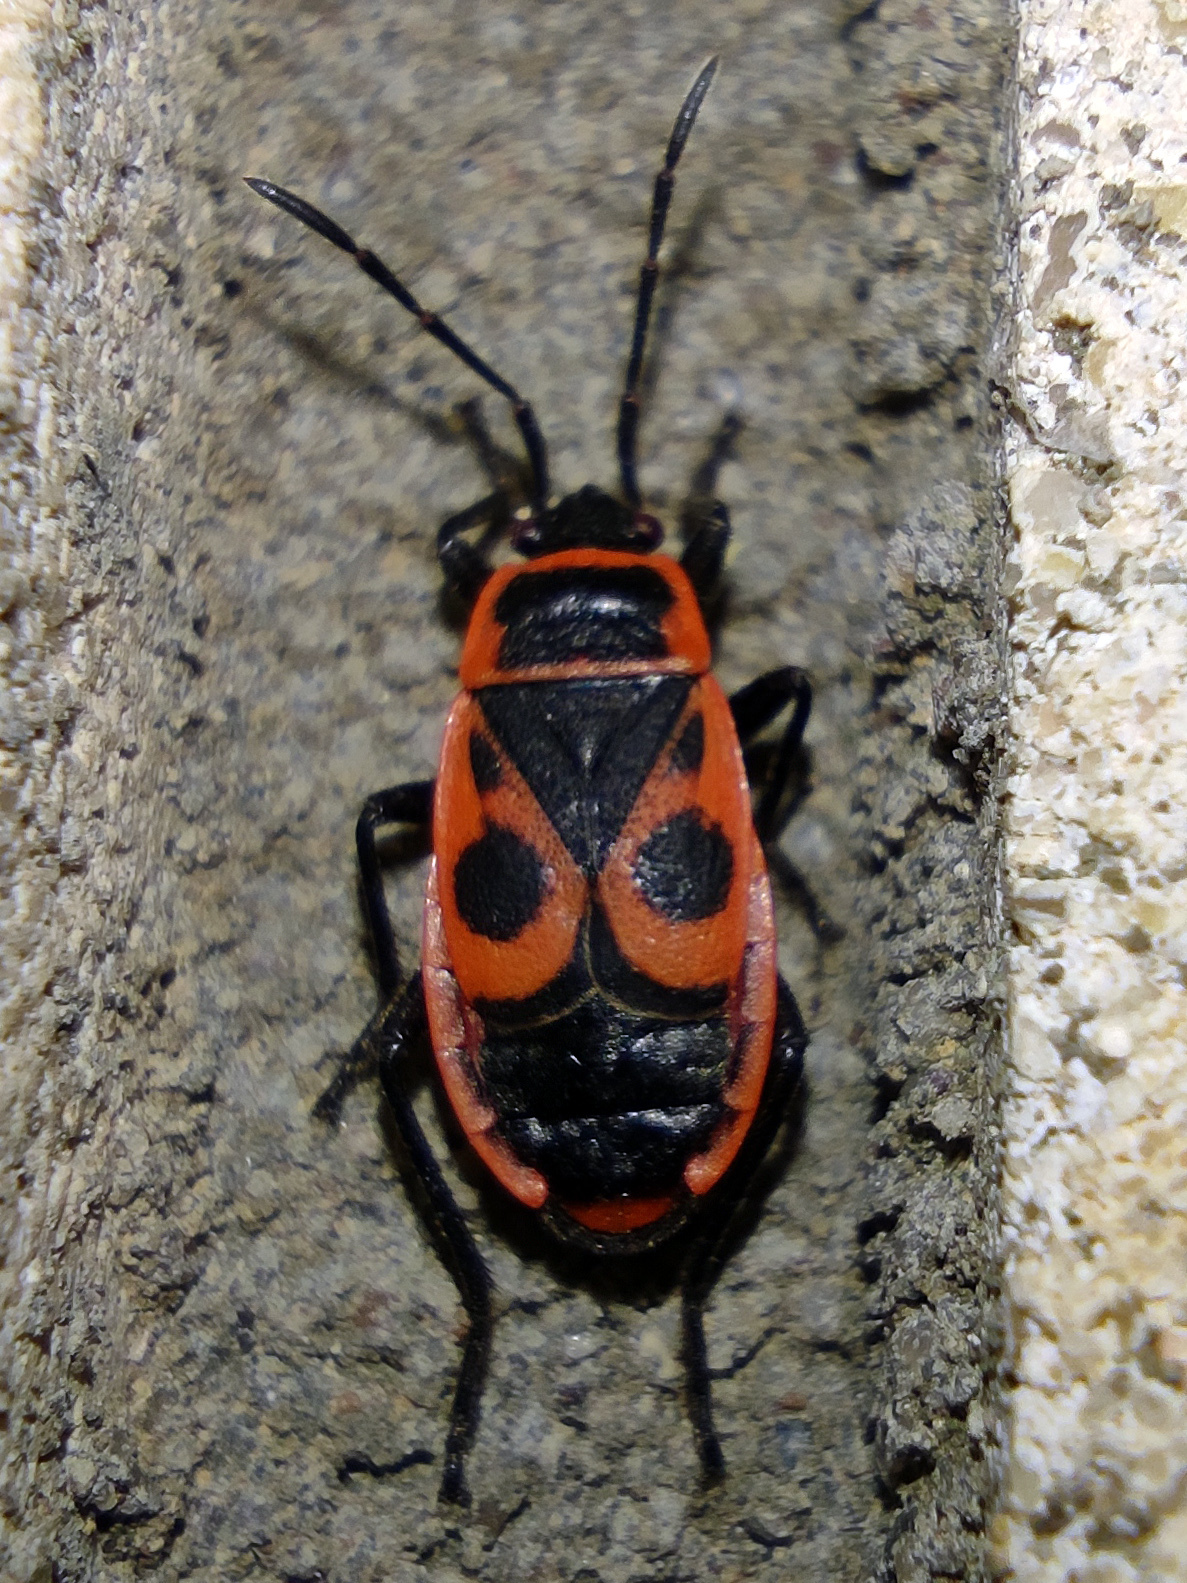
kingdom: Animalia
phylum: Arthropoda
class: Insecta
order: Hemiptera
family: Pyrrhocoridae
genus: Pyrrhocoris
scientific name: Pyrrhocoris apterus
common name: Firebug
